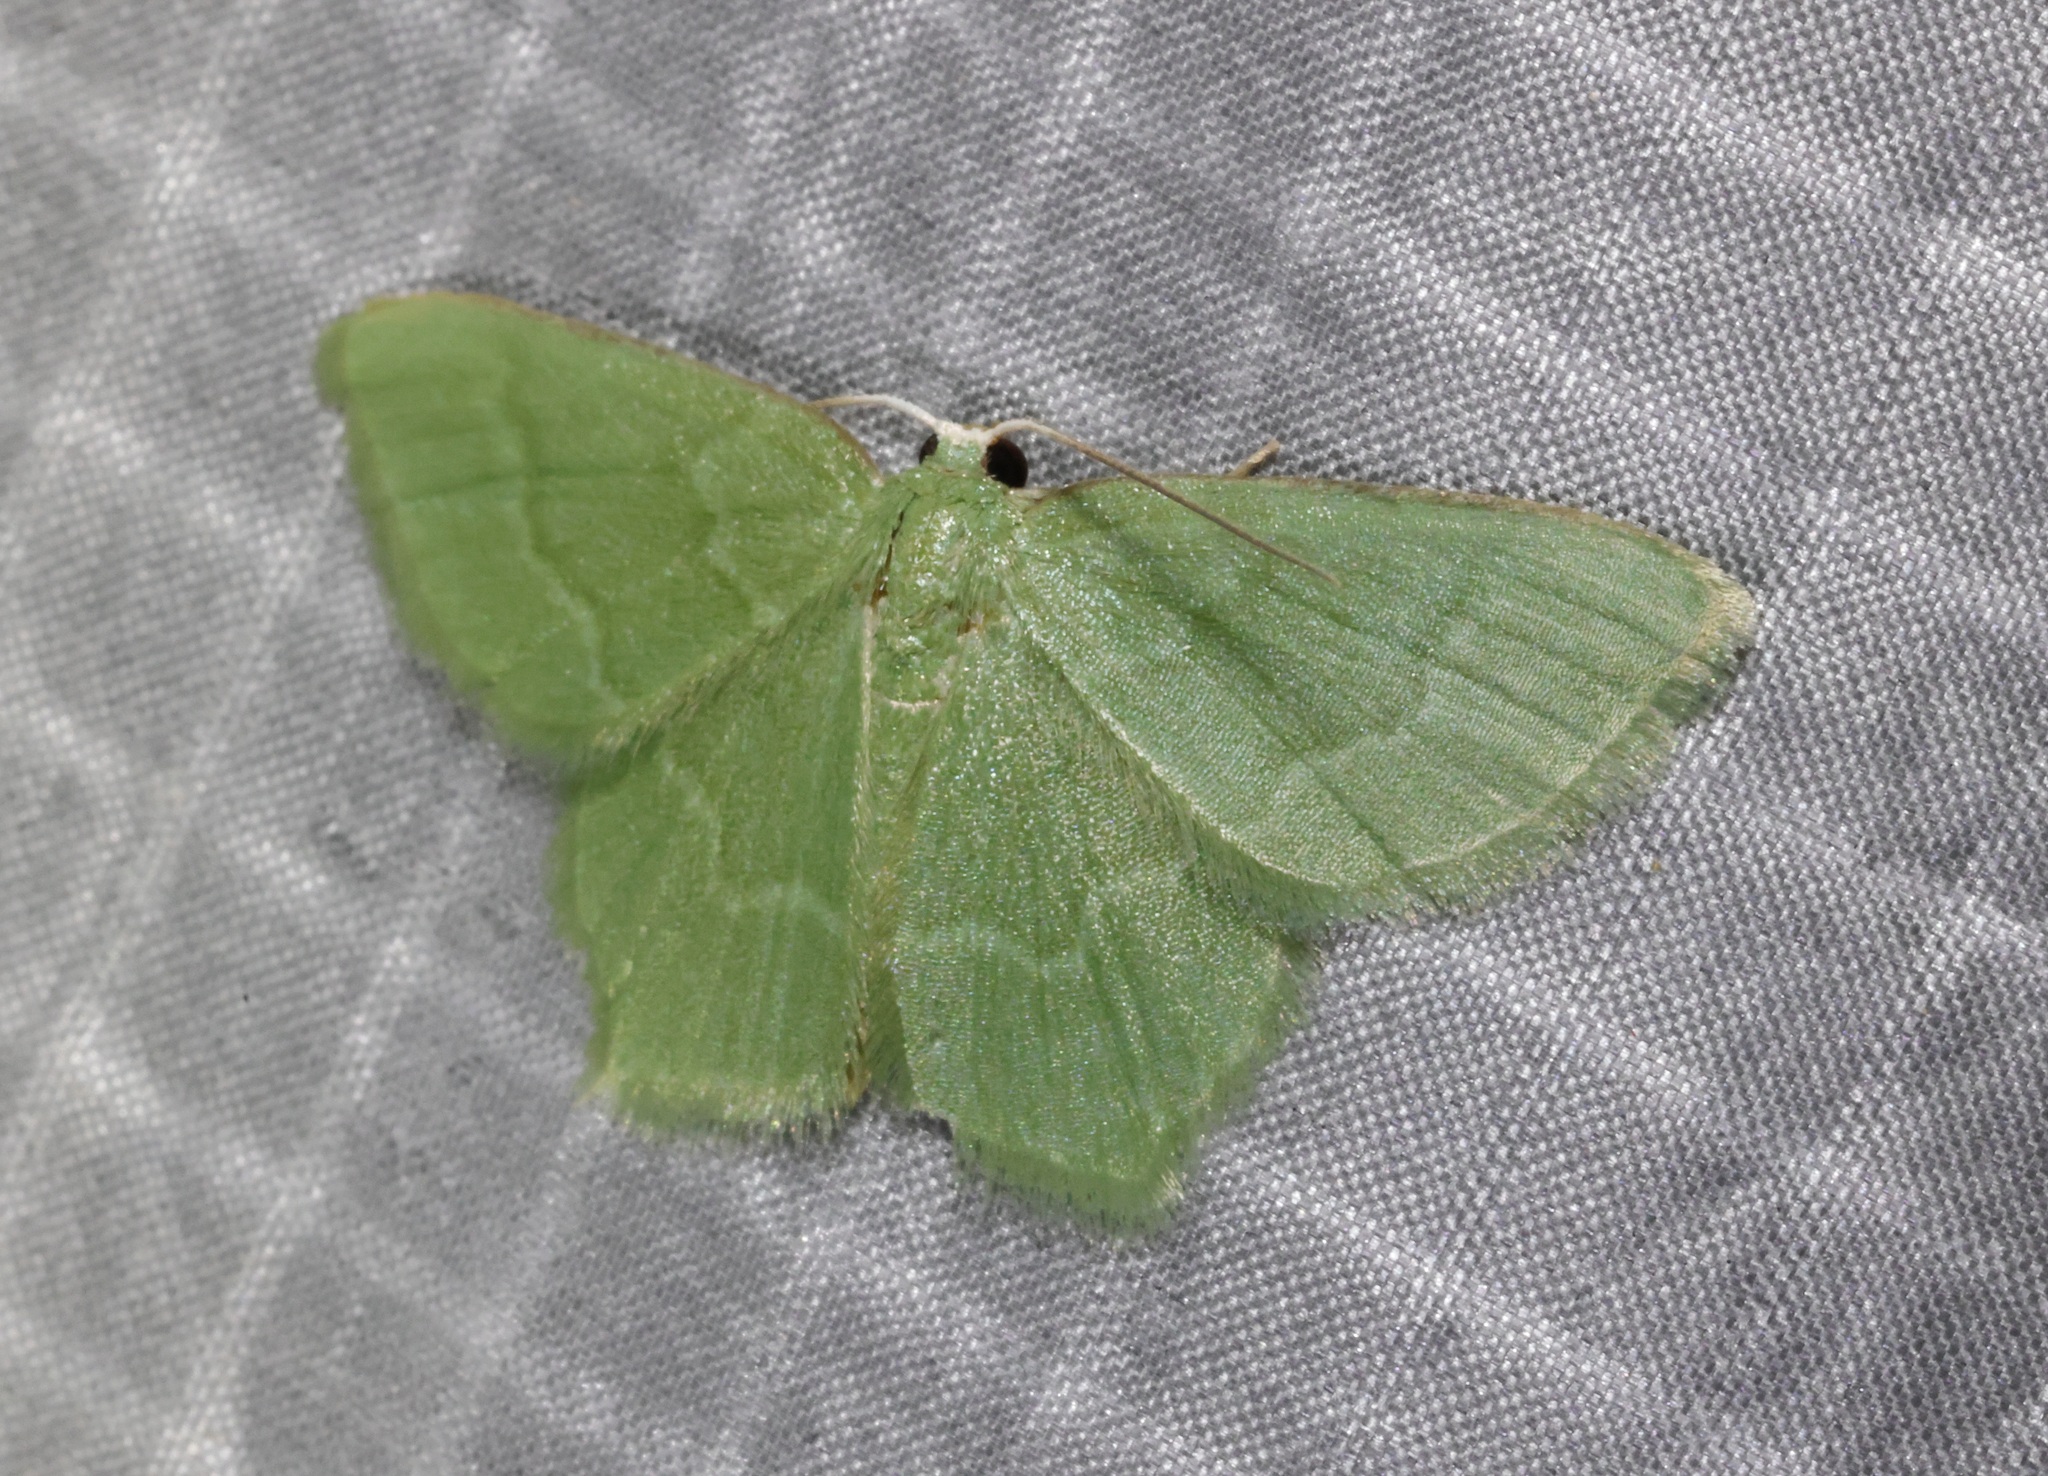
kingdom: Animalia
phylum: Arthropoda
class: Insecta
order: Lepidoptera
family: Geometridae
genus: Idiochlora
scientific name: Idiochlora minuscula
